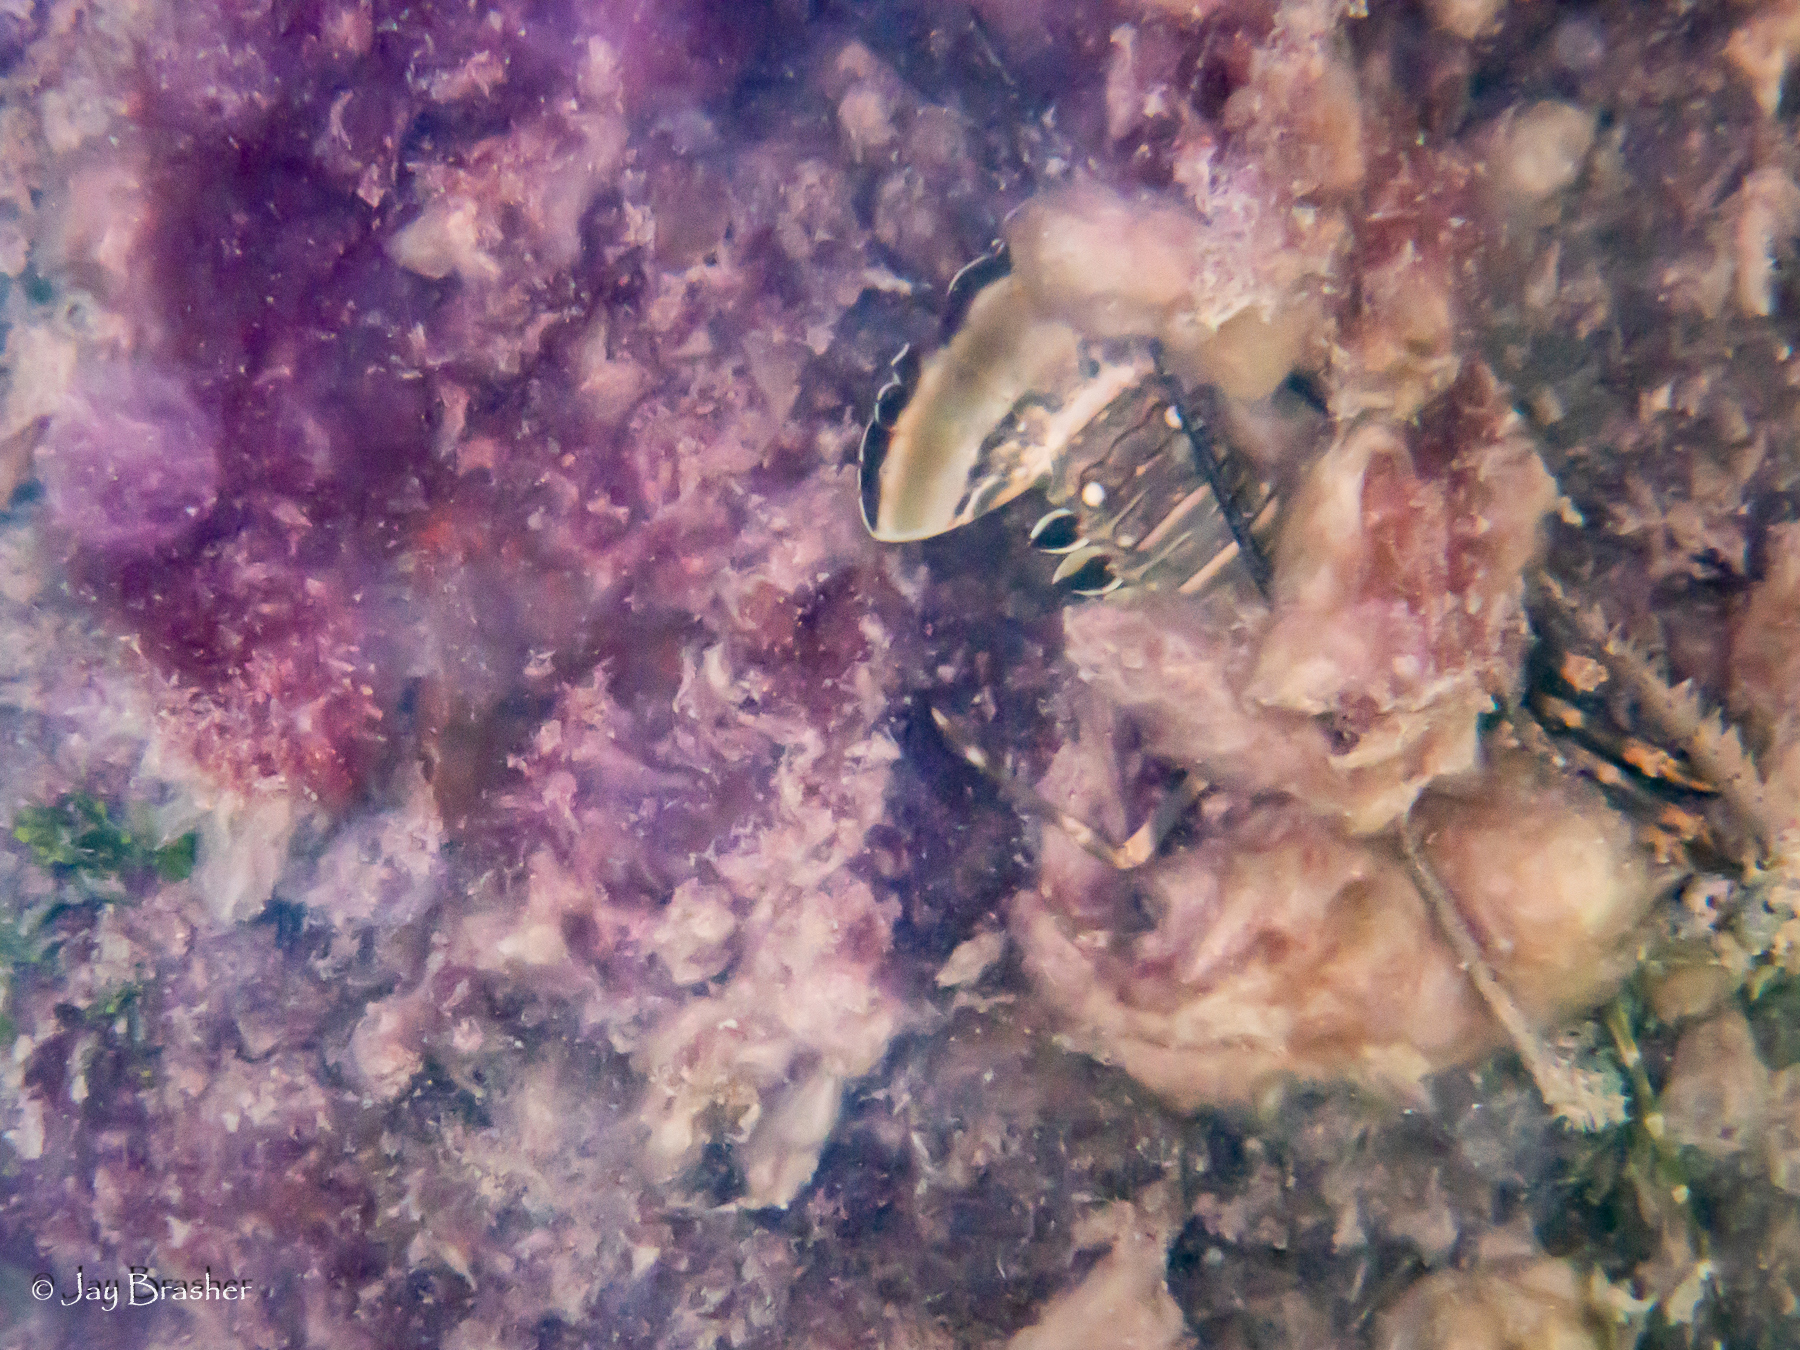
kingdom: Animalia
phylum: Arthropoda
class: Malacostraca
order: Decapoda
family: Palinuridae
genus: Panulirus
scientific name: Panulirus argus
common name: Caribbean spiny lobster
